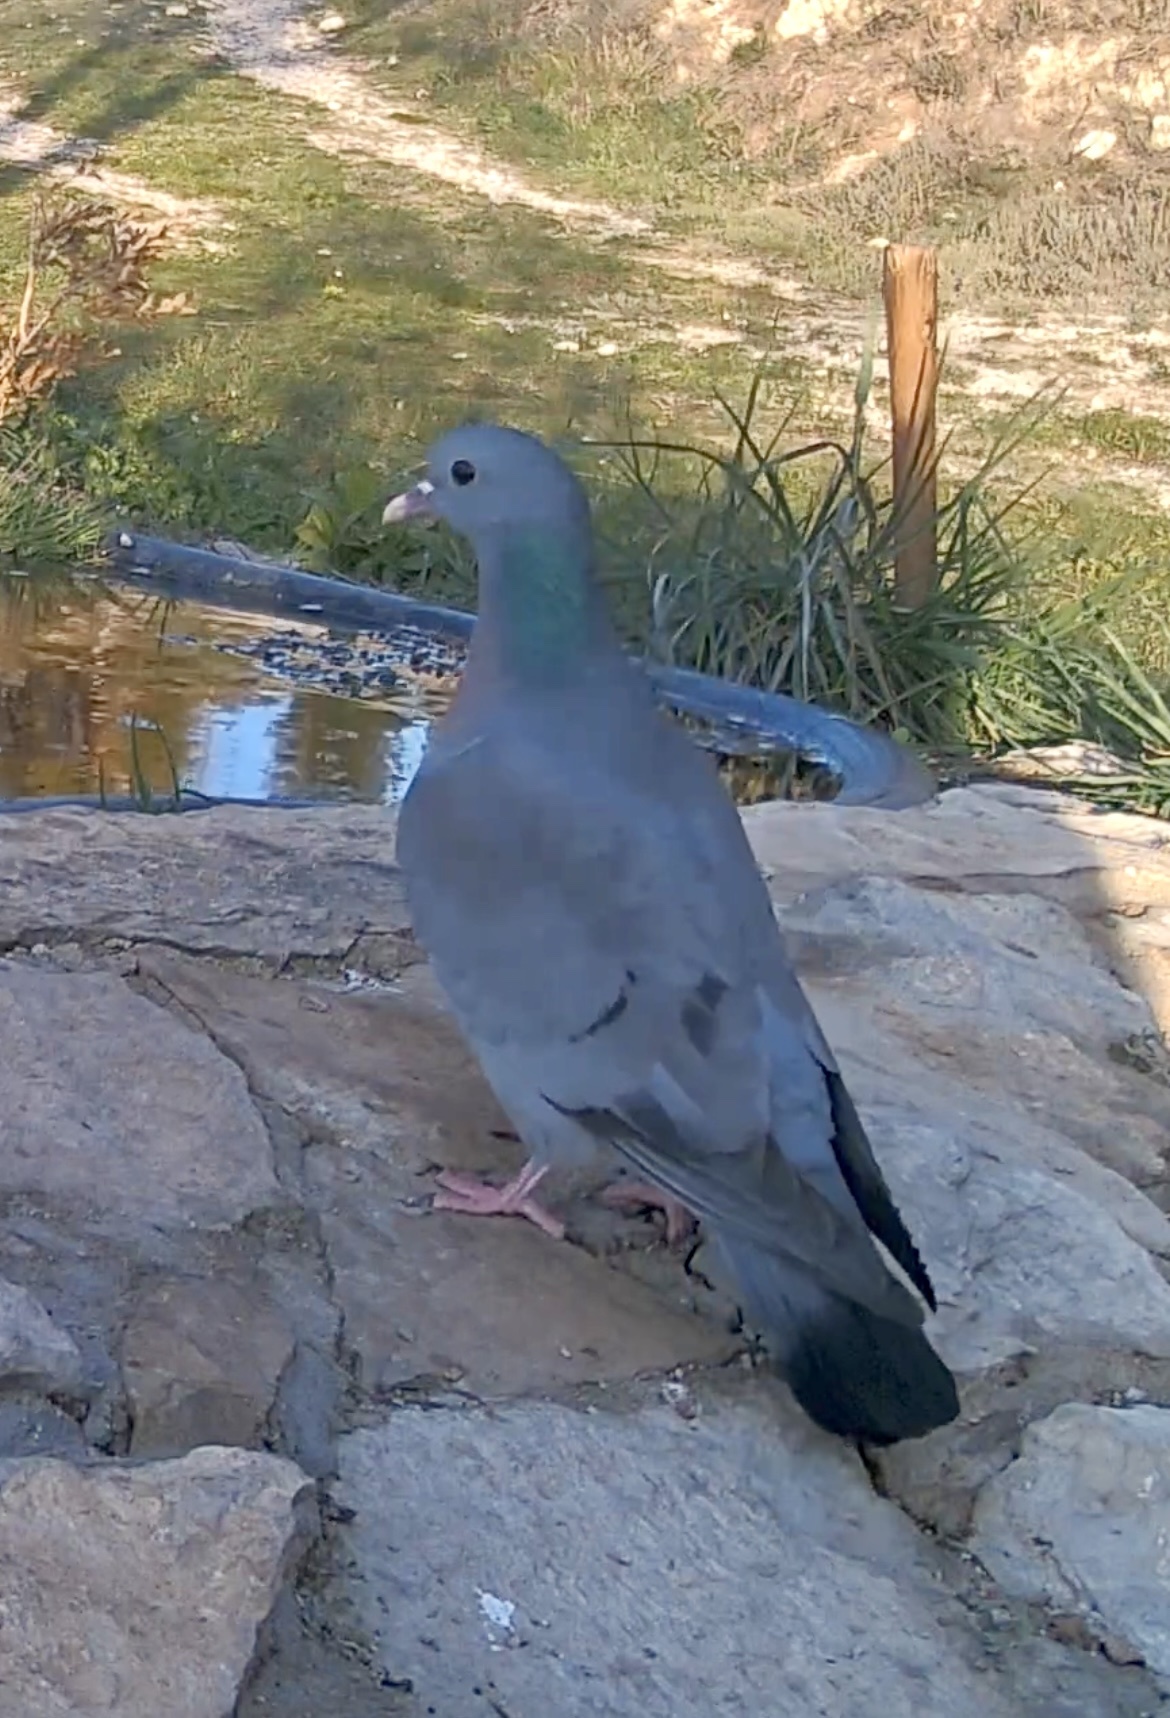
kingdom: Animalia
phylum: Chordata
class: Aves
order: Columbiformes
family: Columbidae
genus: Columba
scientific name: Columba oenas
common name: Stock dove
